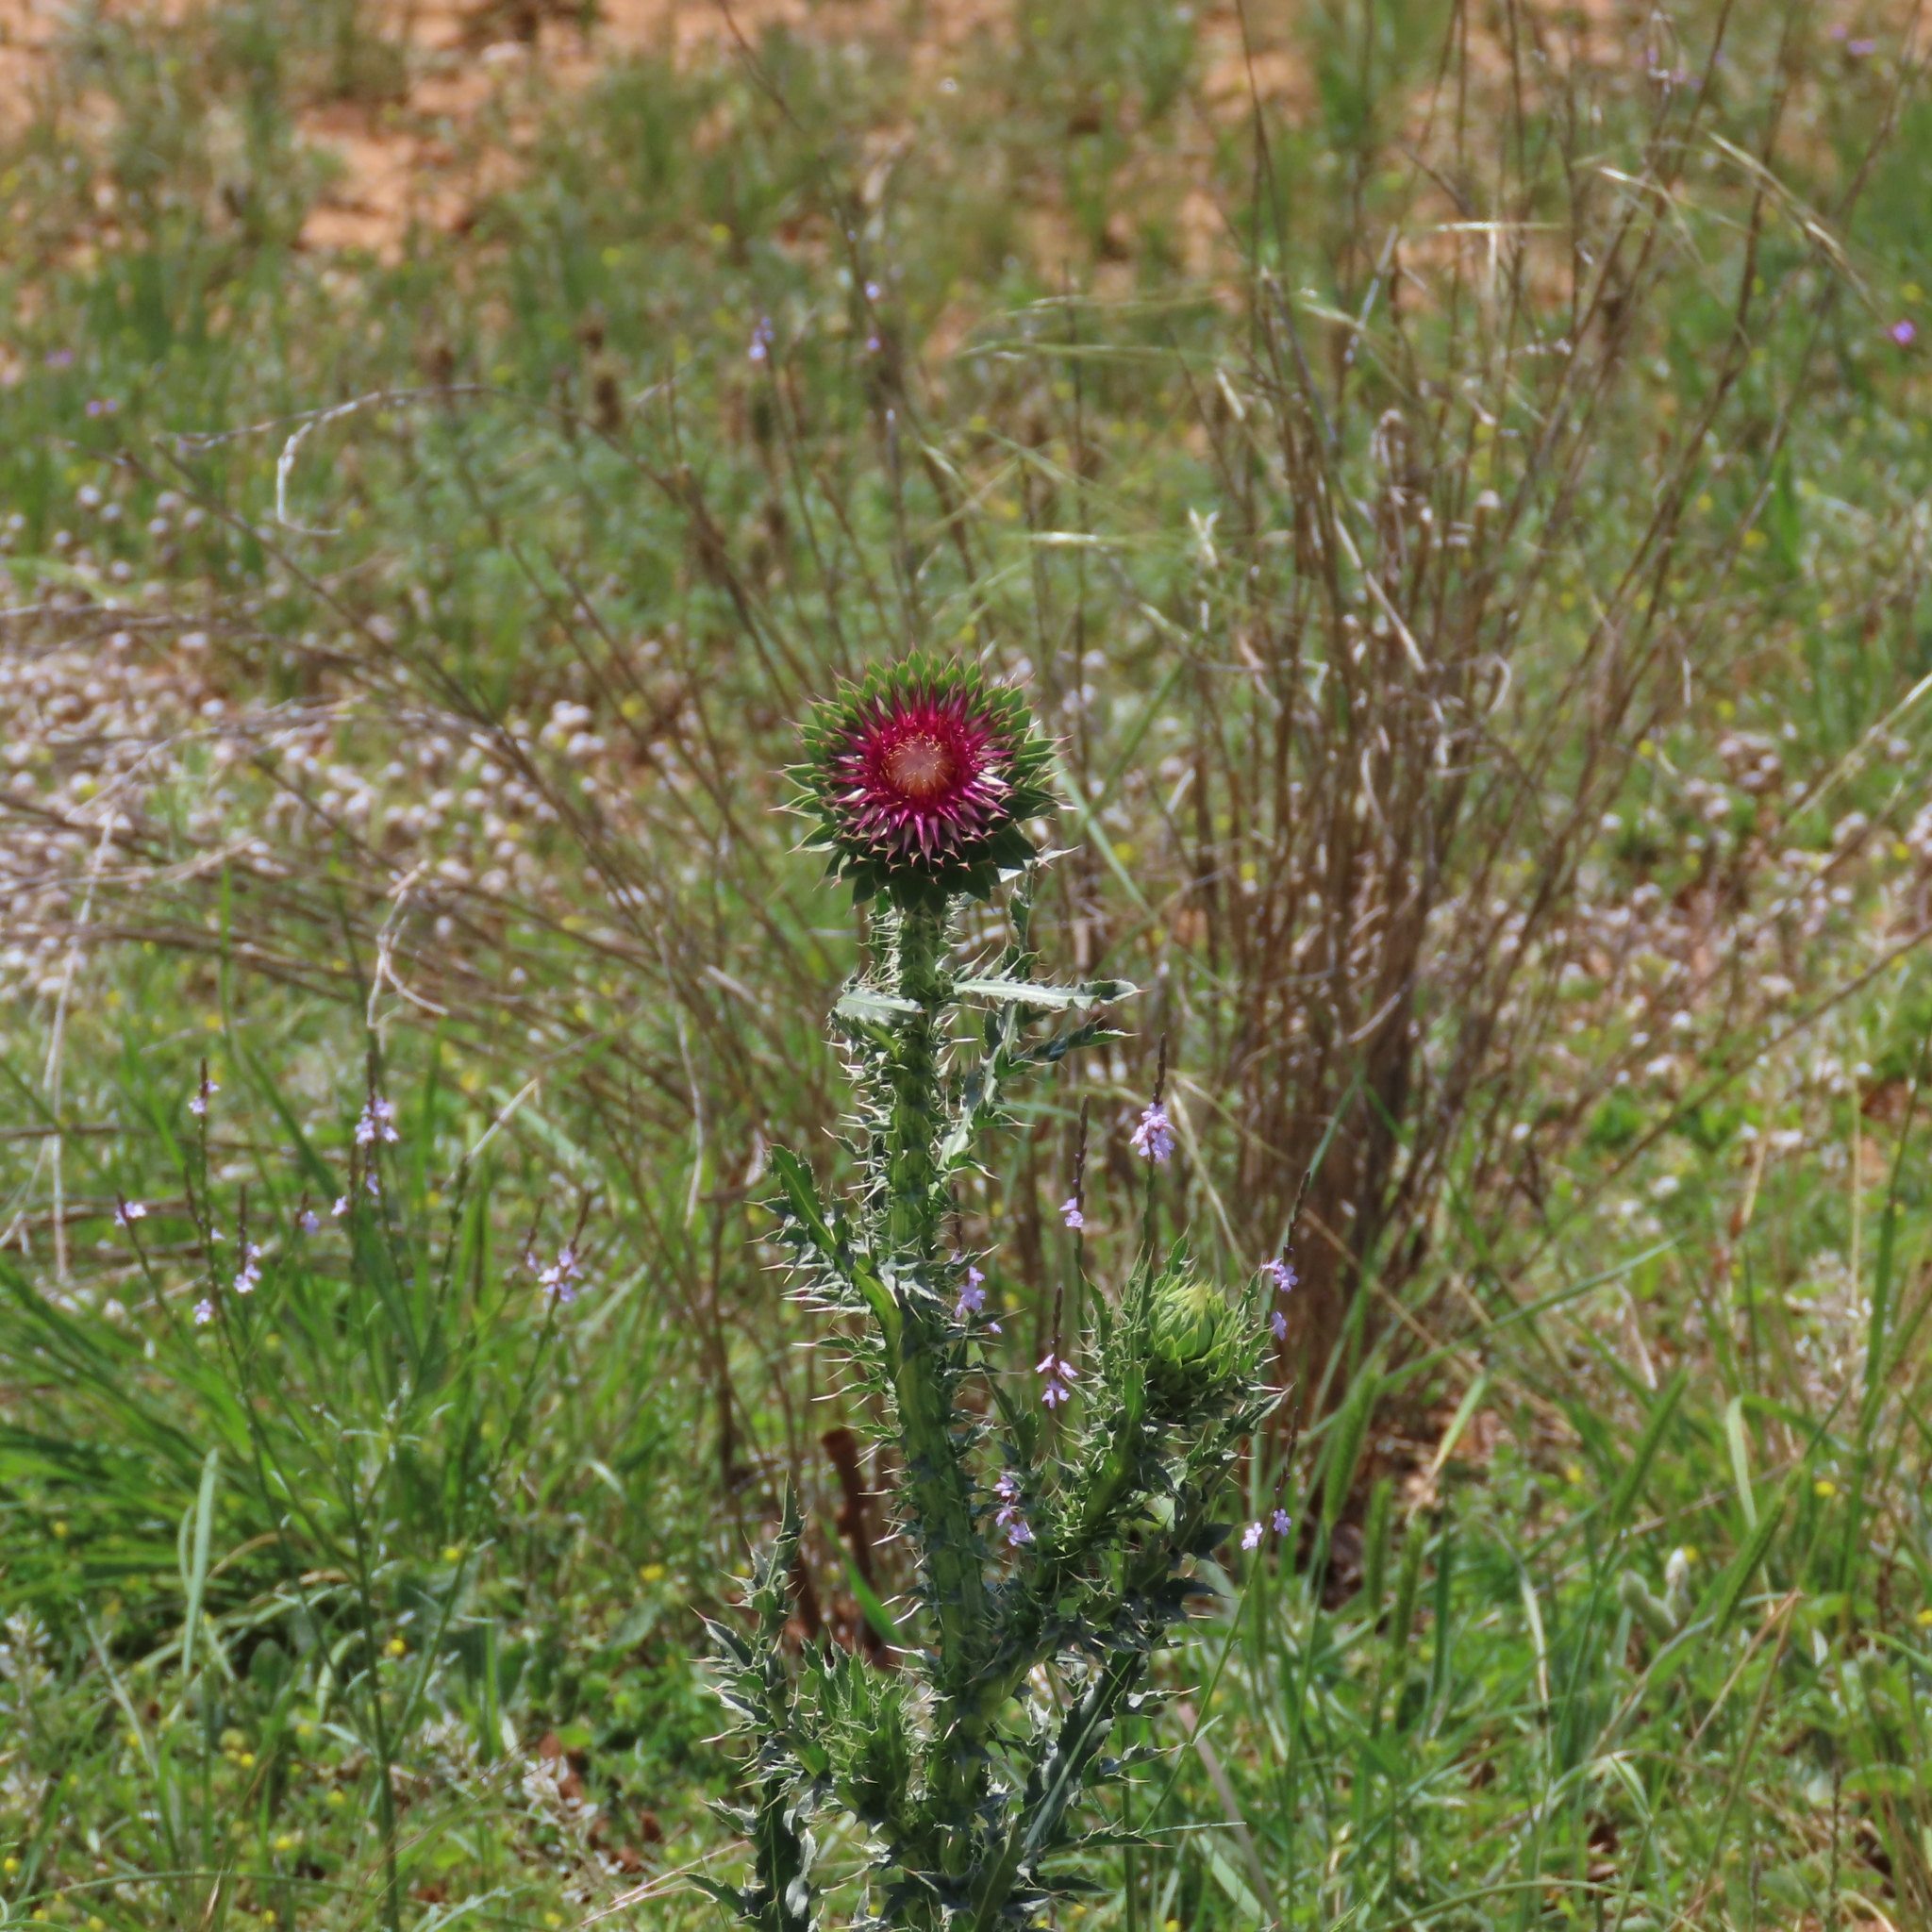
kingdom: Plantae
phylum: Tracheophyta
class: Magnoliopsida
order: Asterales
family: Asteraceae
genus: Carduus
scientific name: Carduus nutans
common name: Musk thistle
